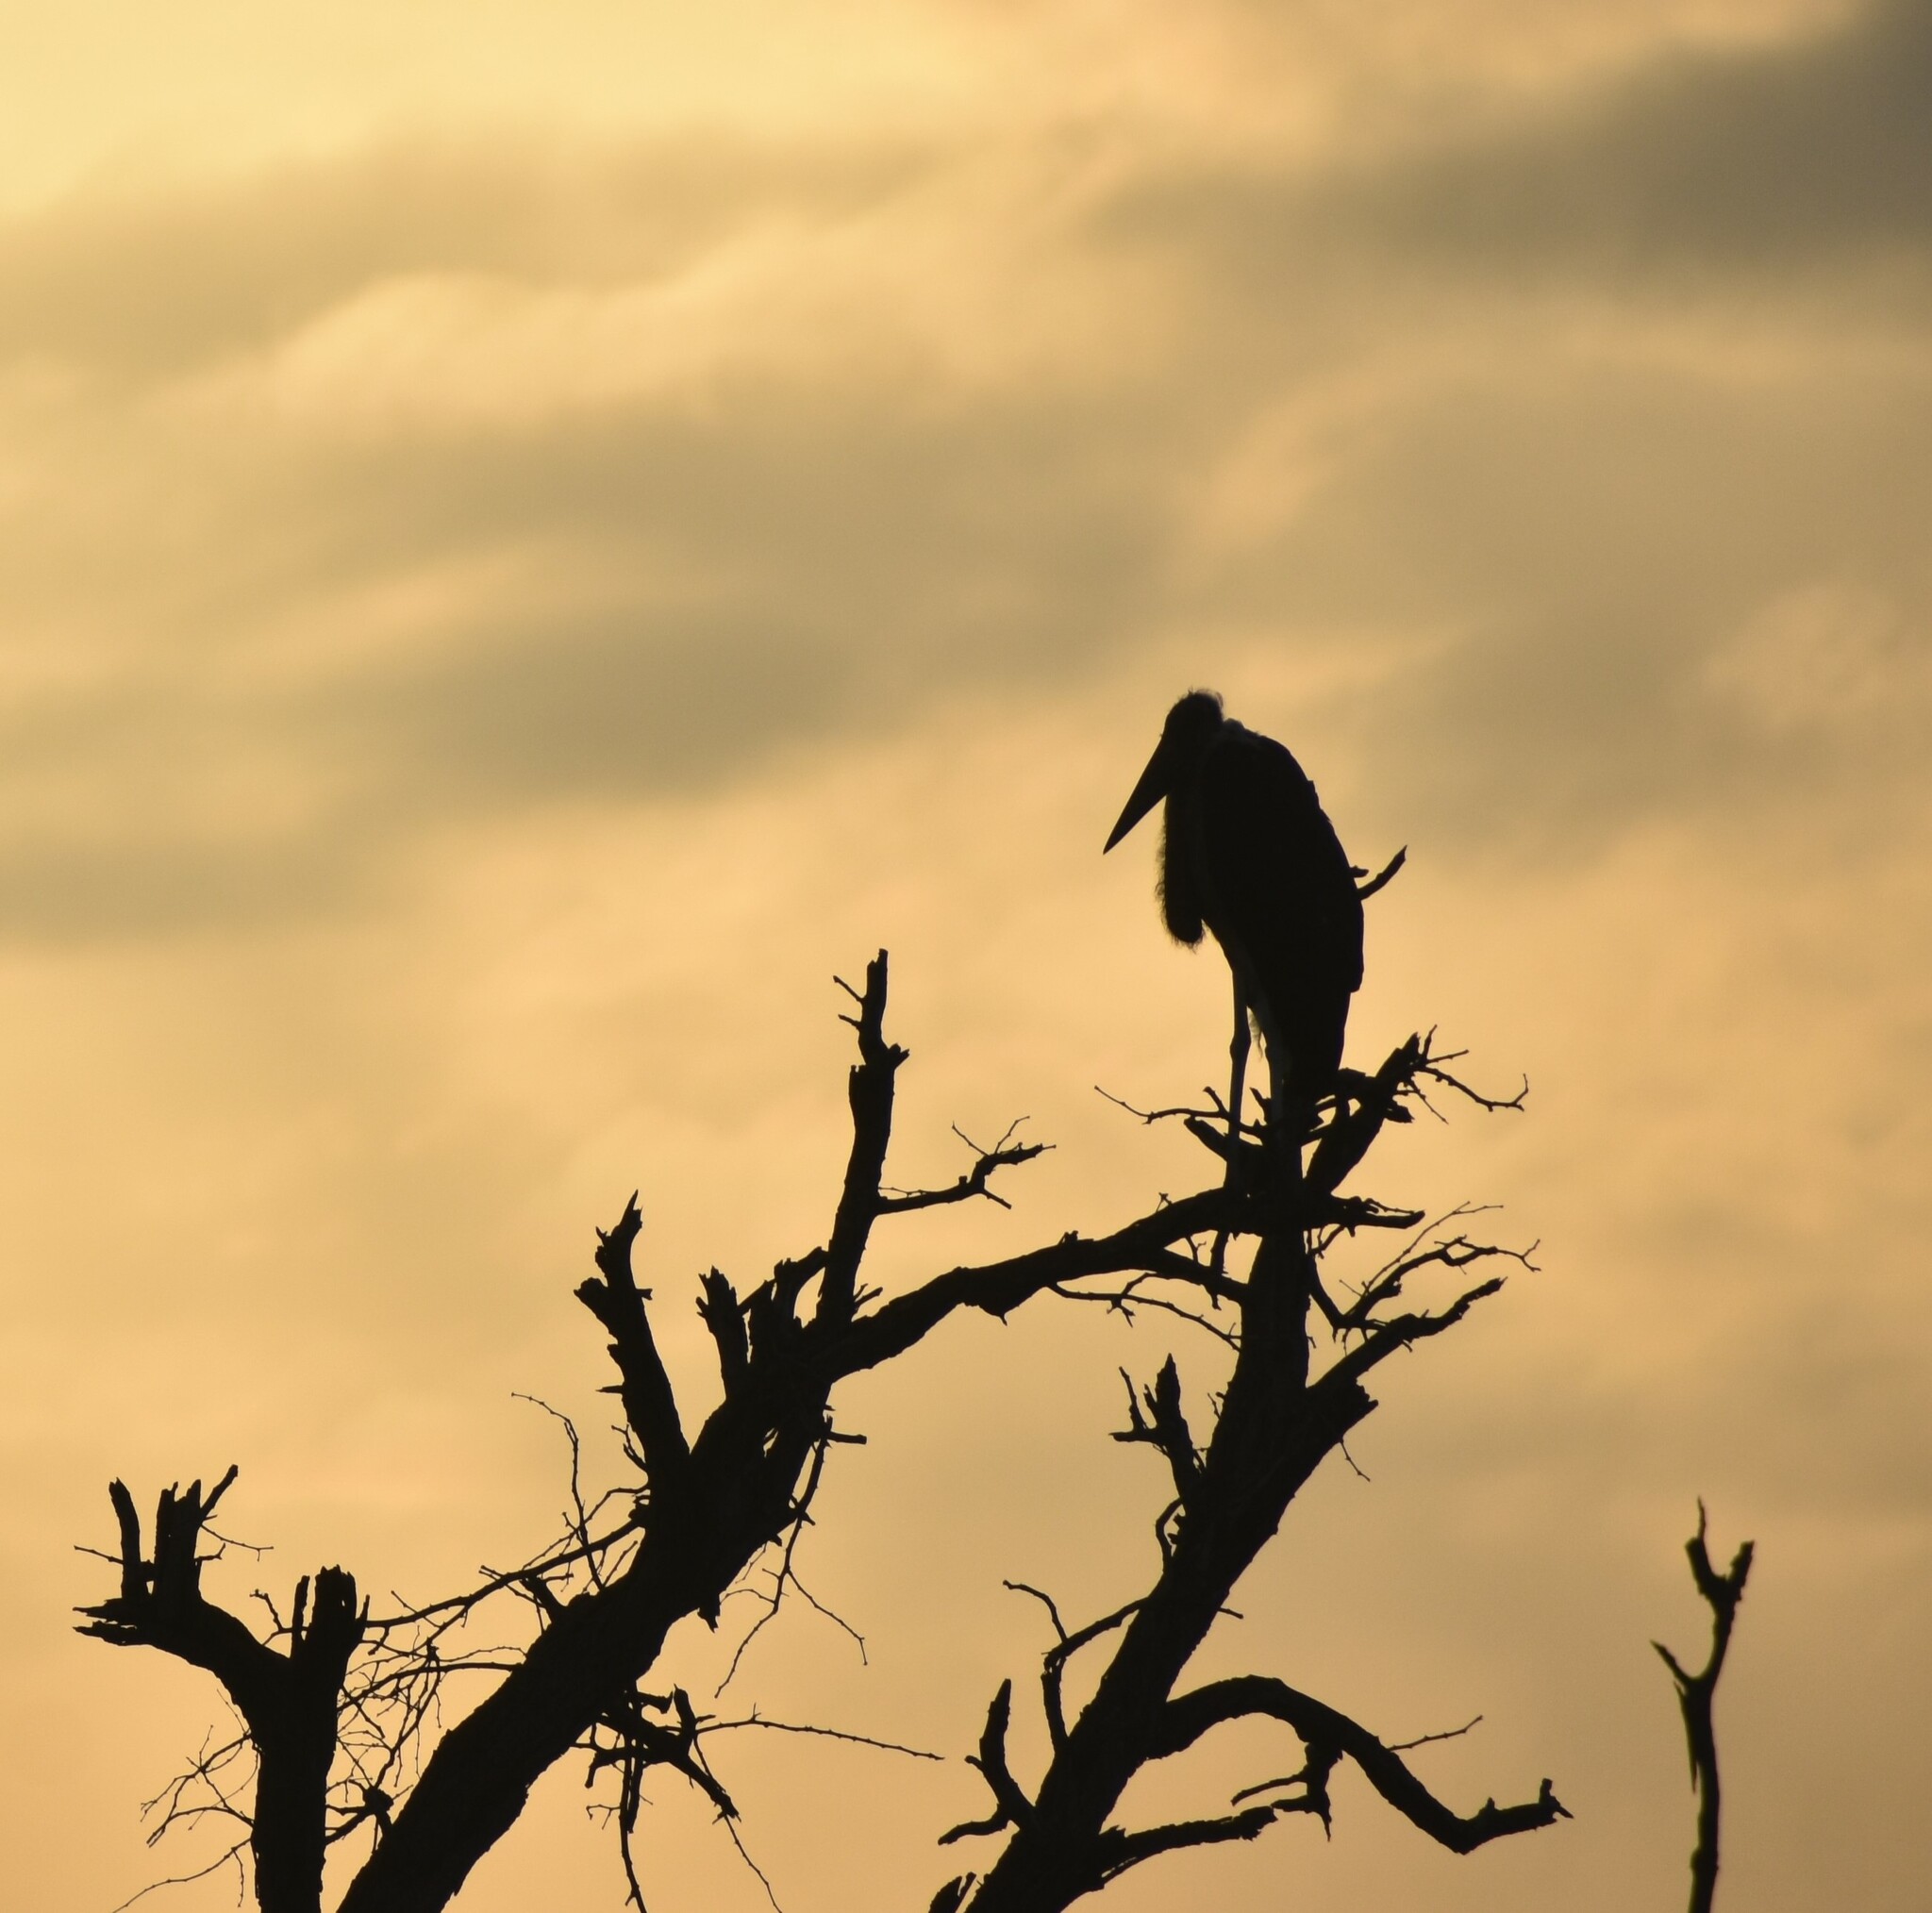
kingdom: Animalia
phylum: Chordata
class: Aves
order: Ciconiiformes
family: Ciconiidae
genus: Leptoptilos
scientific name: Leptoptilos crumenifer
